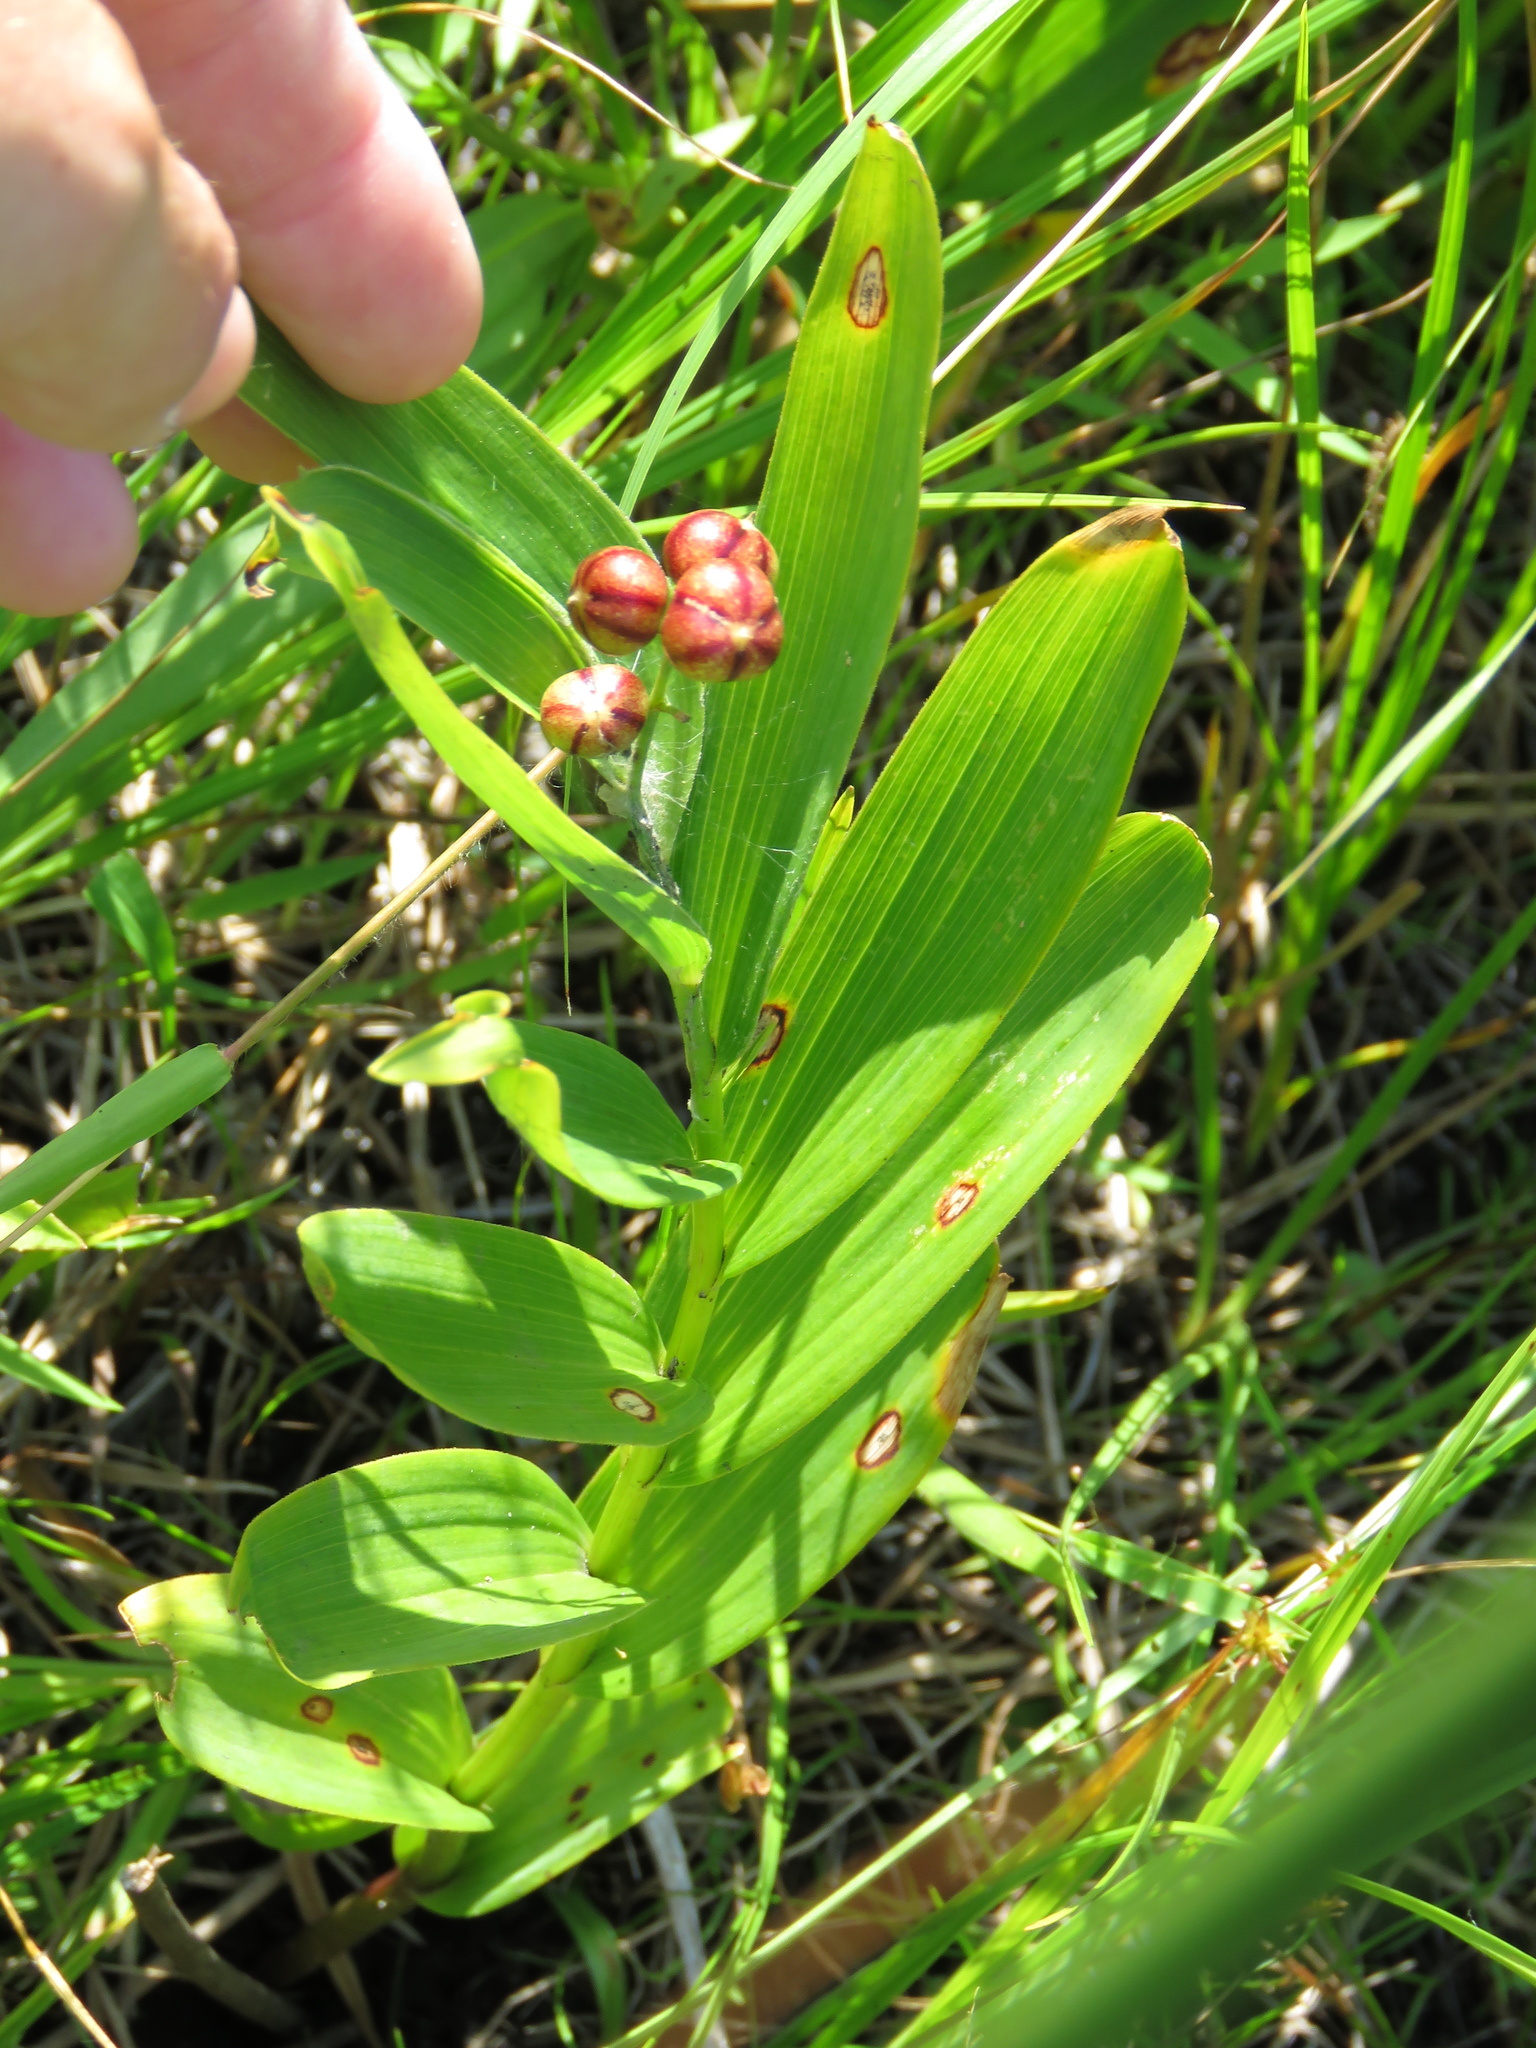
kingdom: Plantae
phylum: Tracheophyta
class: Liliopsida
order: Asparagales
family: Asparagaceae
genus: Maianthemum
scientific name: Maianthemum stellatum
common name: Little false solomon's seal
